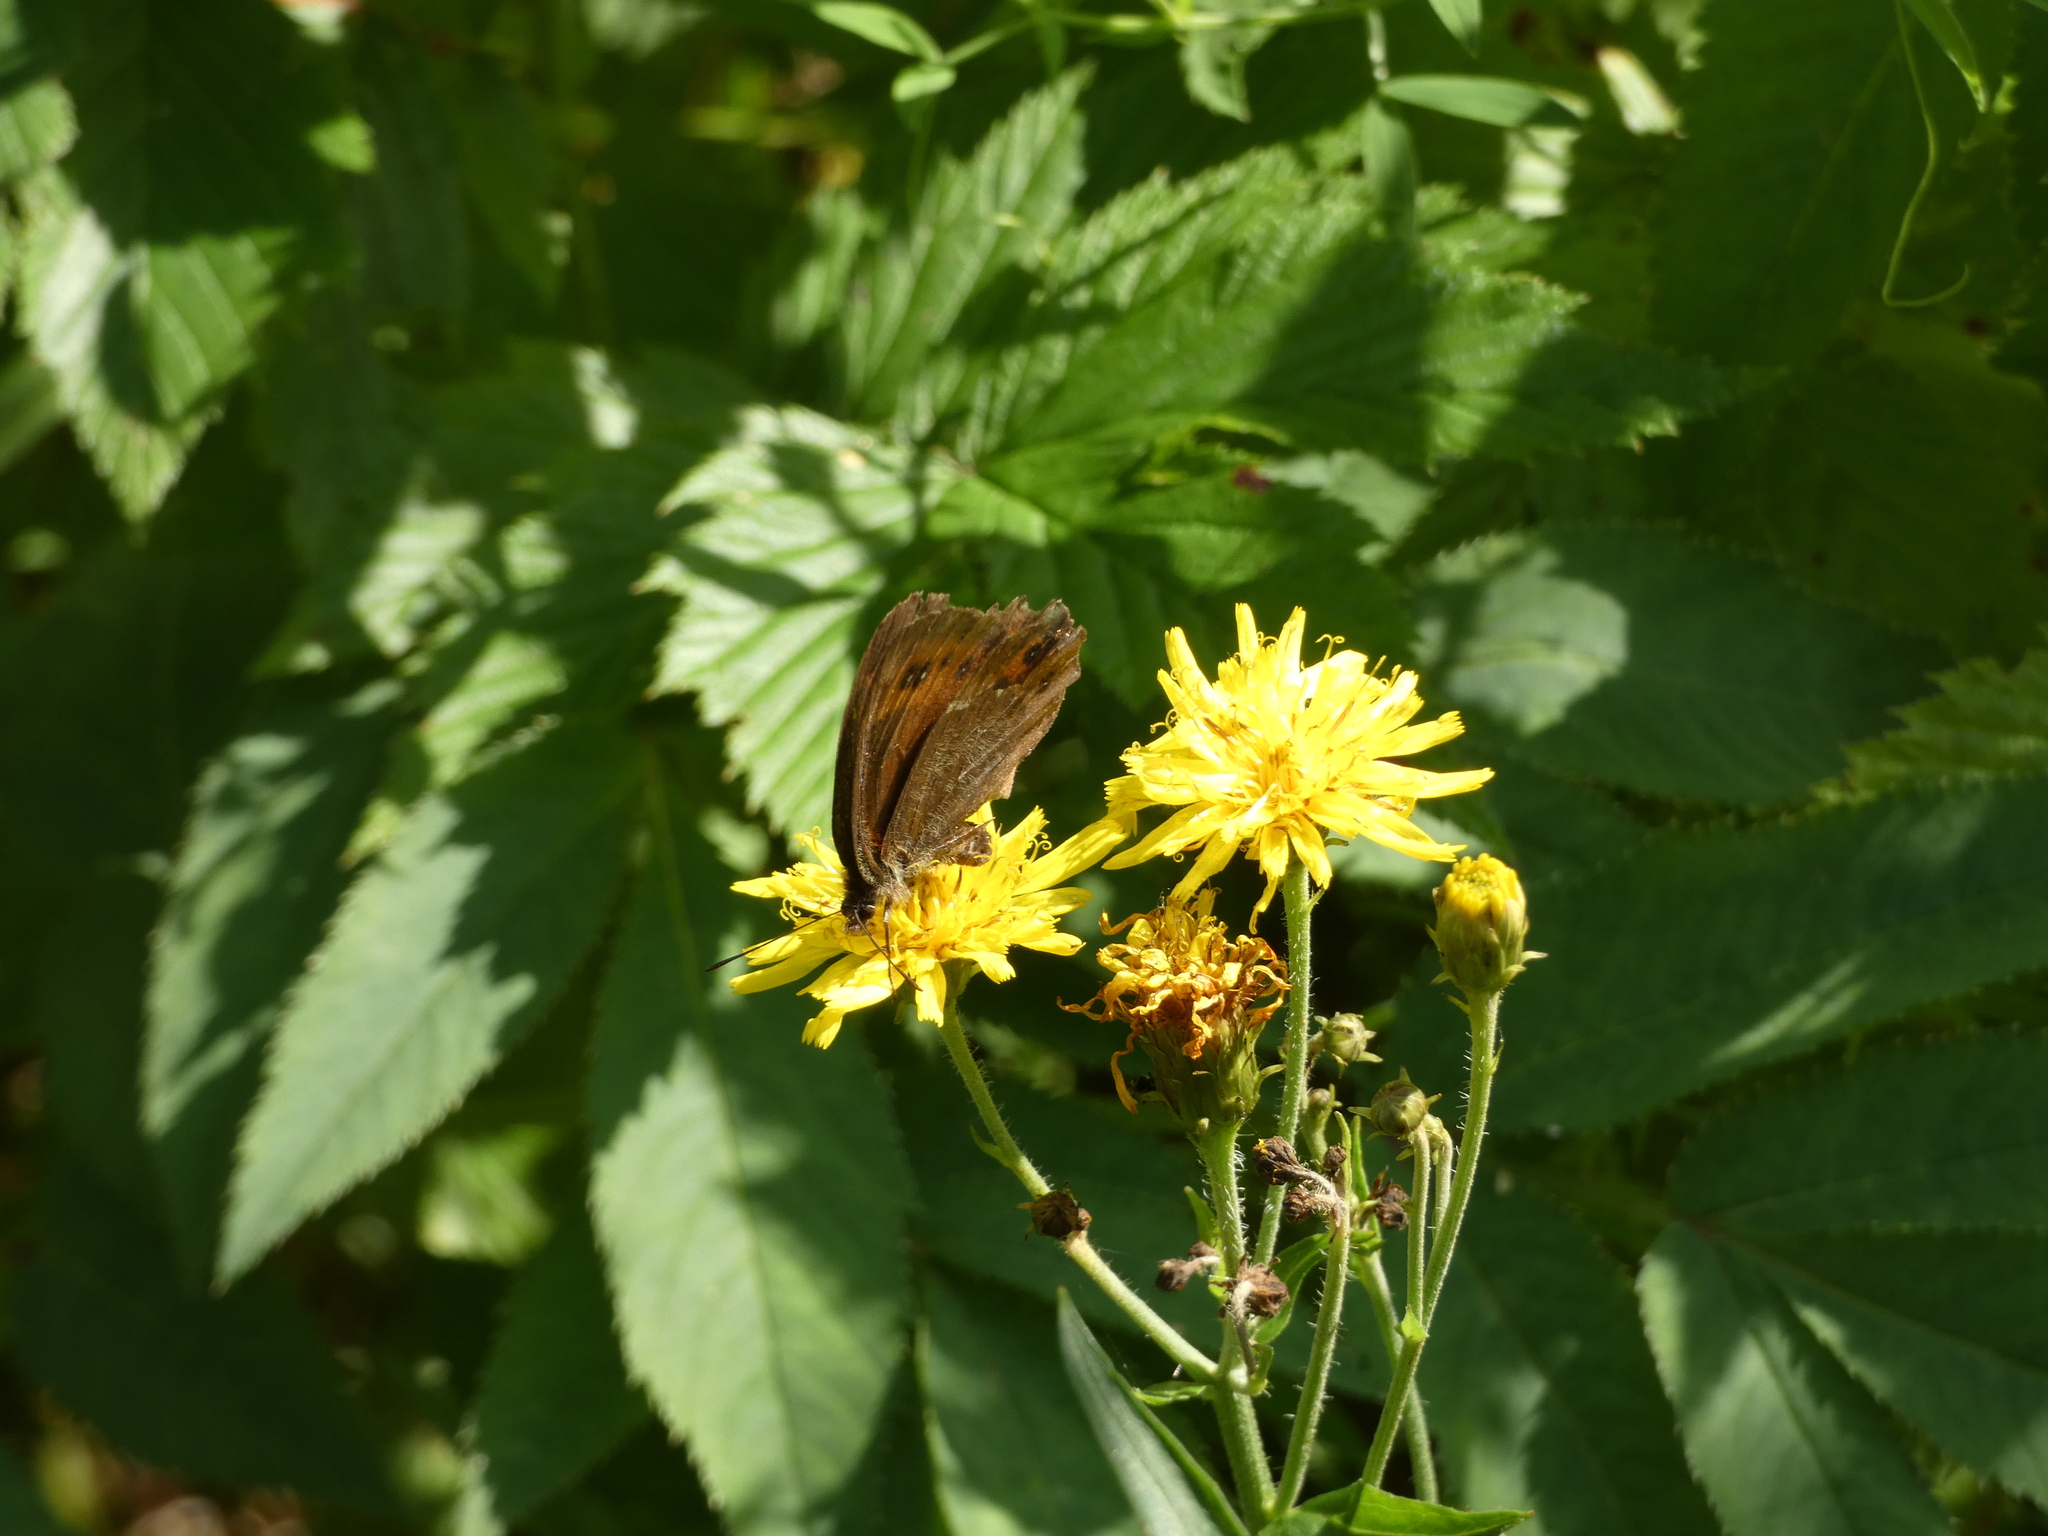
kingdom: Animalia
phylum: Arthropoda
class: Insecta
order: Lepidoptera
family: Nymphalidae
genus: Erebia
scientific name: Erebia ligea
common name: Arran brown
